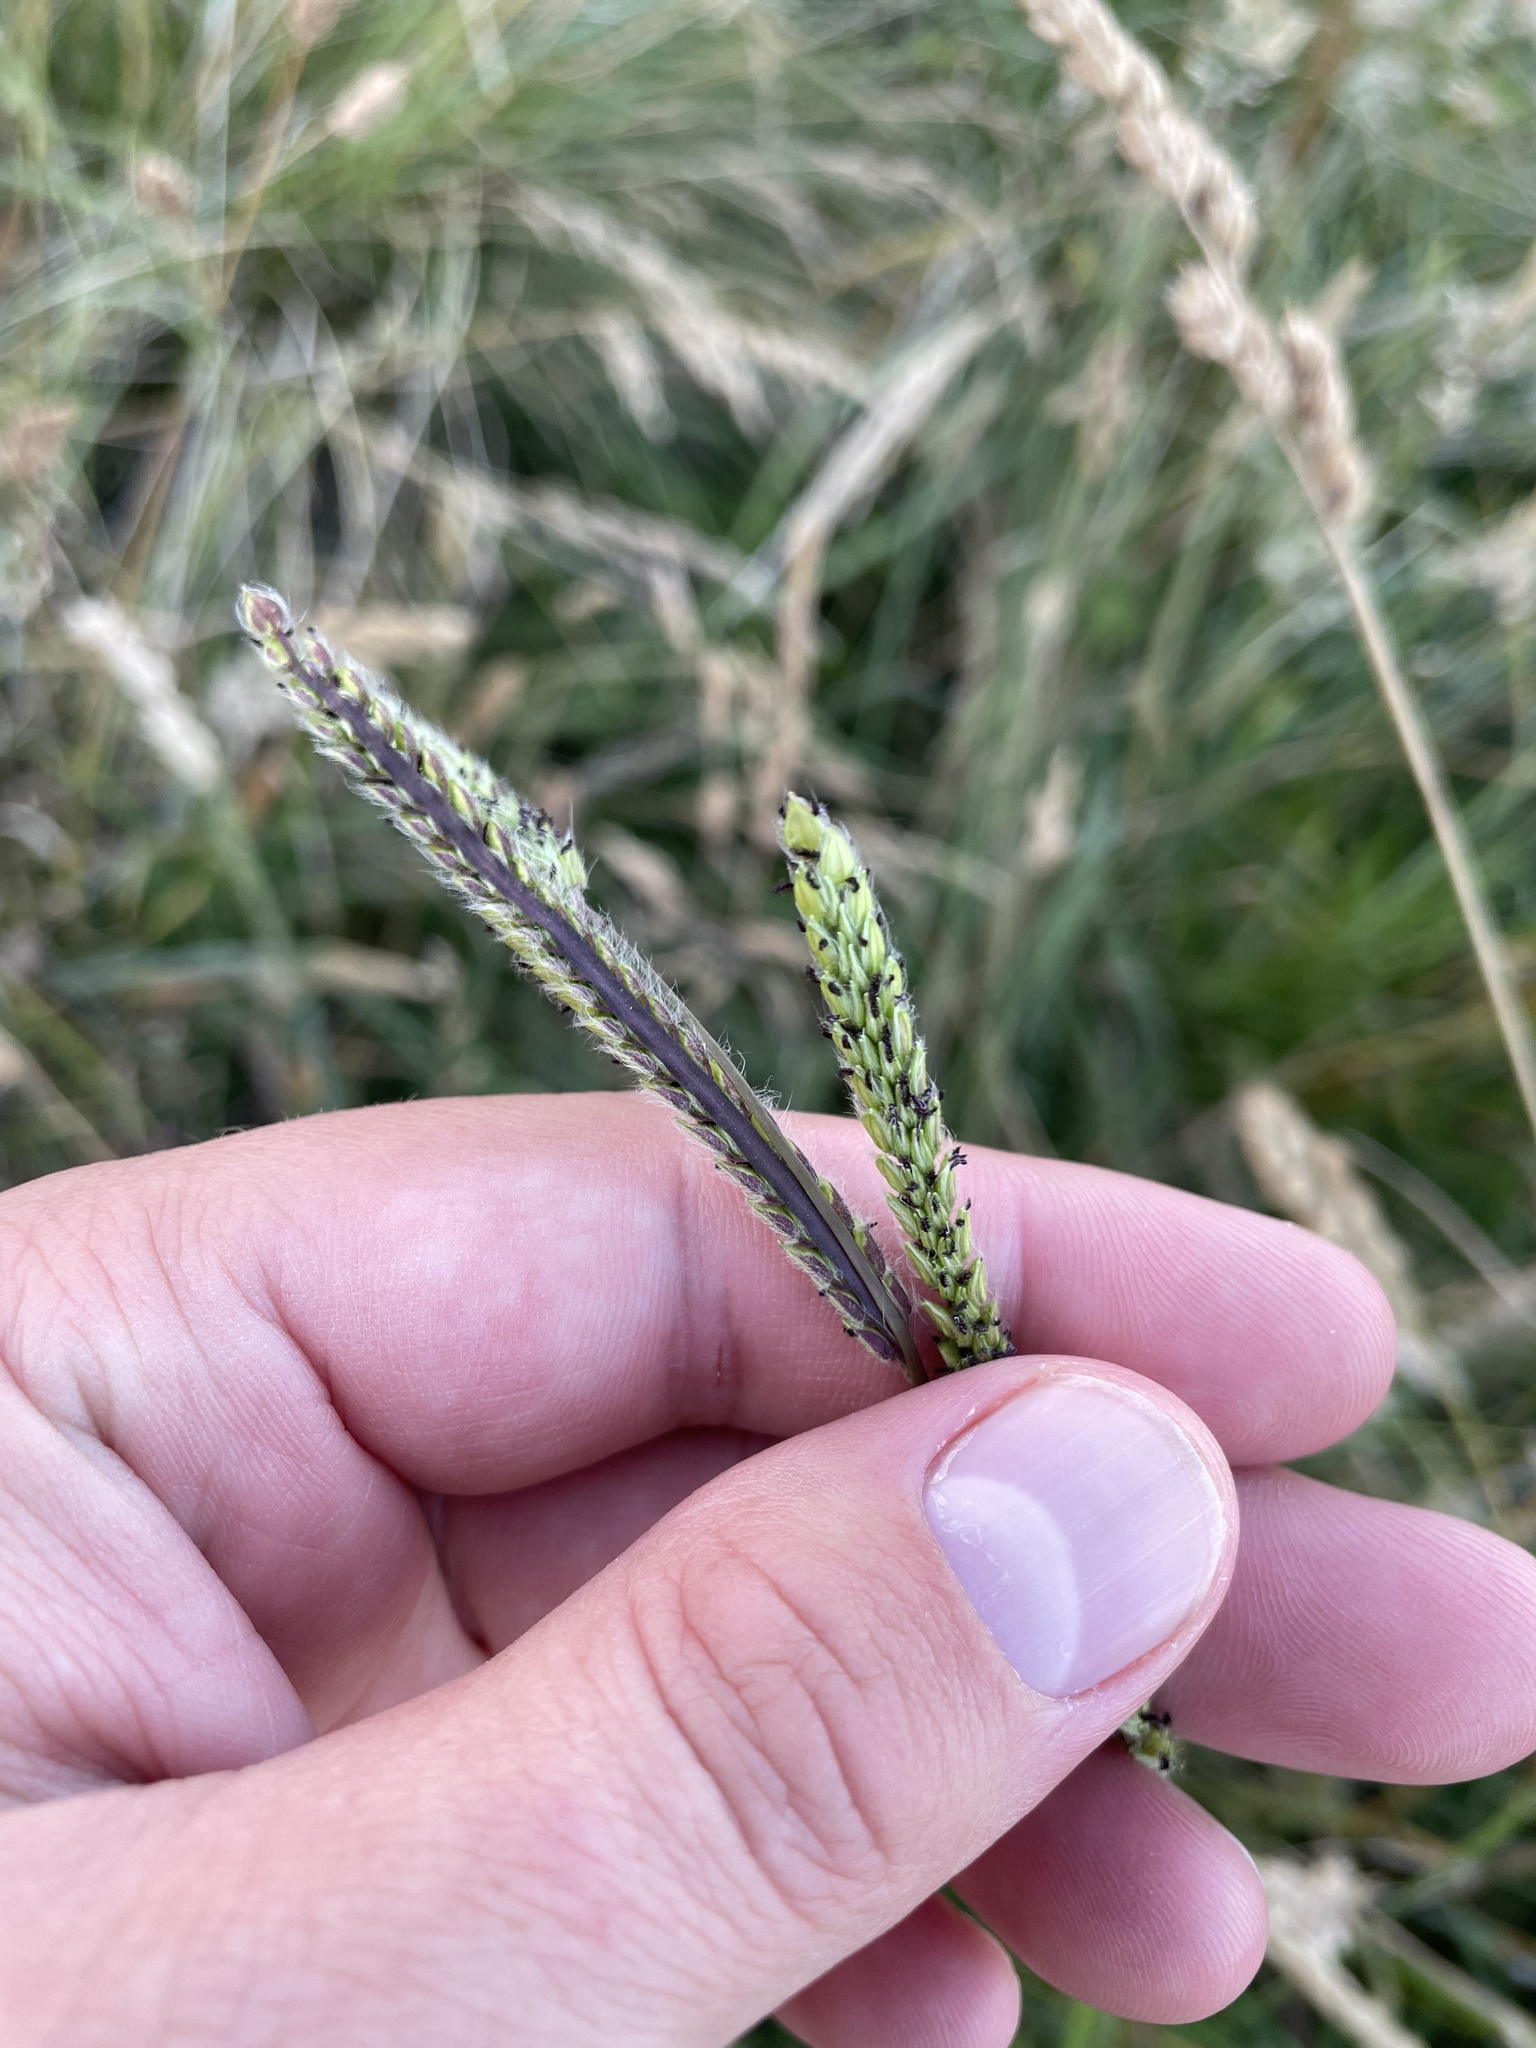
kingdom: Plantae
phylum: Tracheophyta
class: Liliopsida
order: Poales
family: Poaceae
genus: Paspalum
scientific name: Paspalum dilatatum
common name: Dallisgrass
